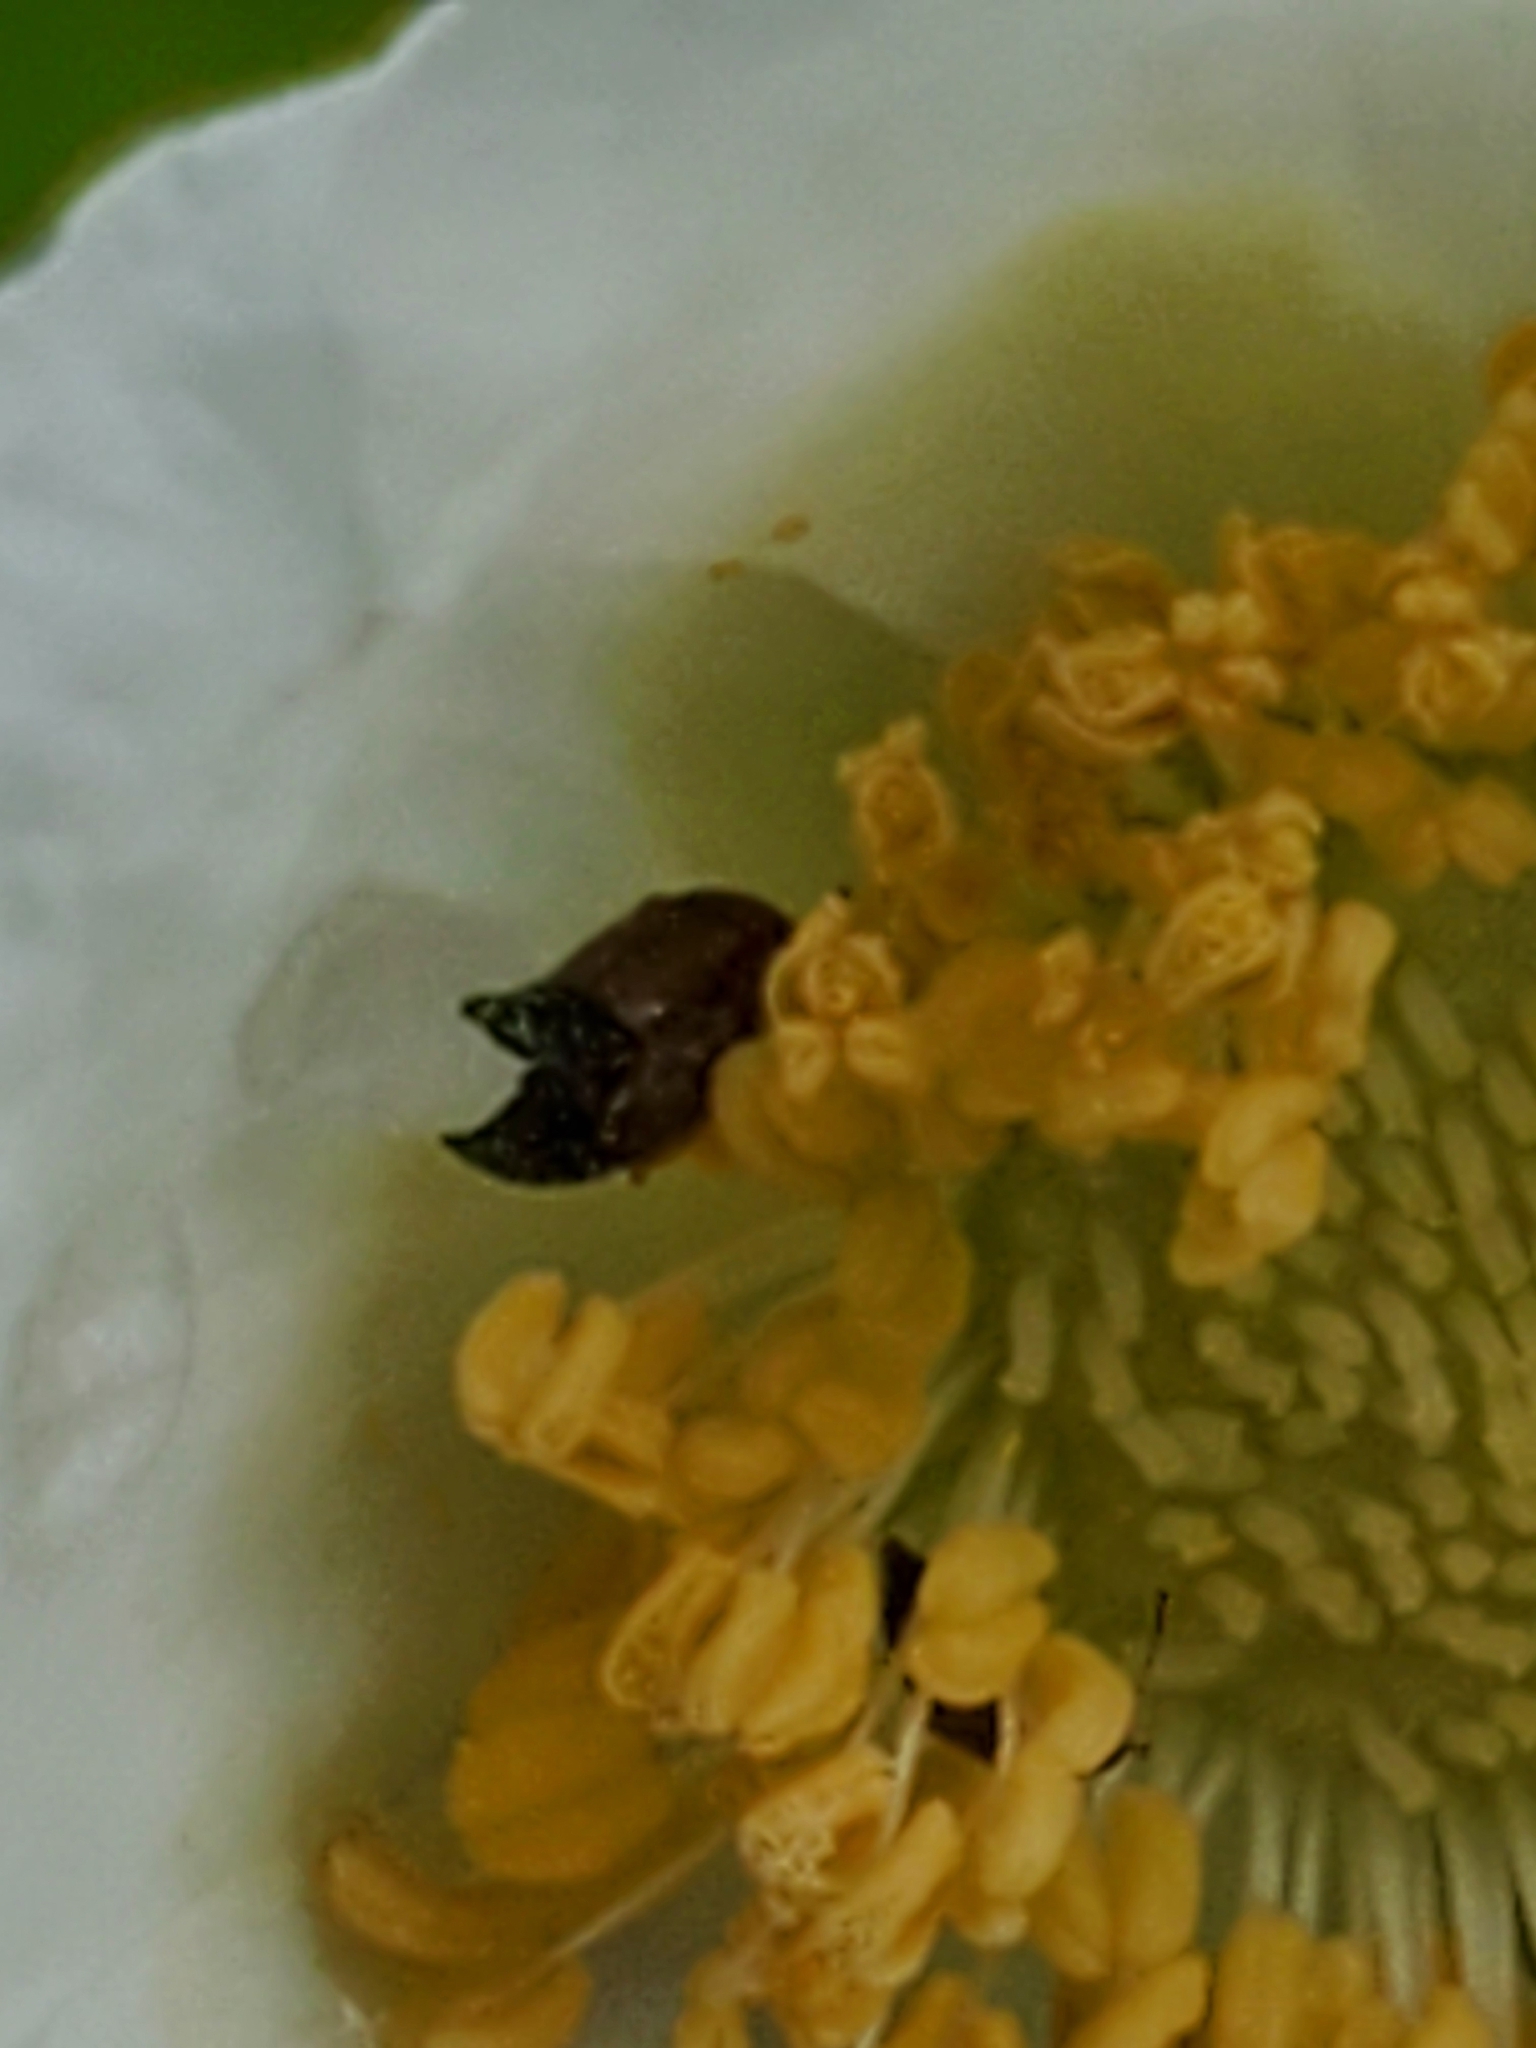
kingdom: Plantae
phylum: Tracheophyta
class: Magnoliopsida
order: Rosales
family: Rosaceae
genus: Rubus
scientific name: Rubus parviflorus
